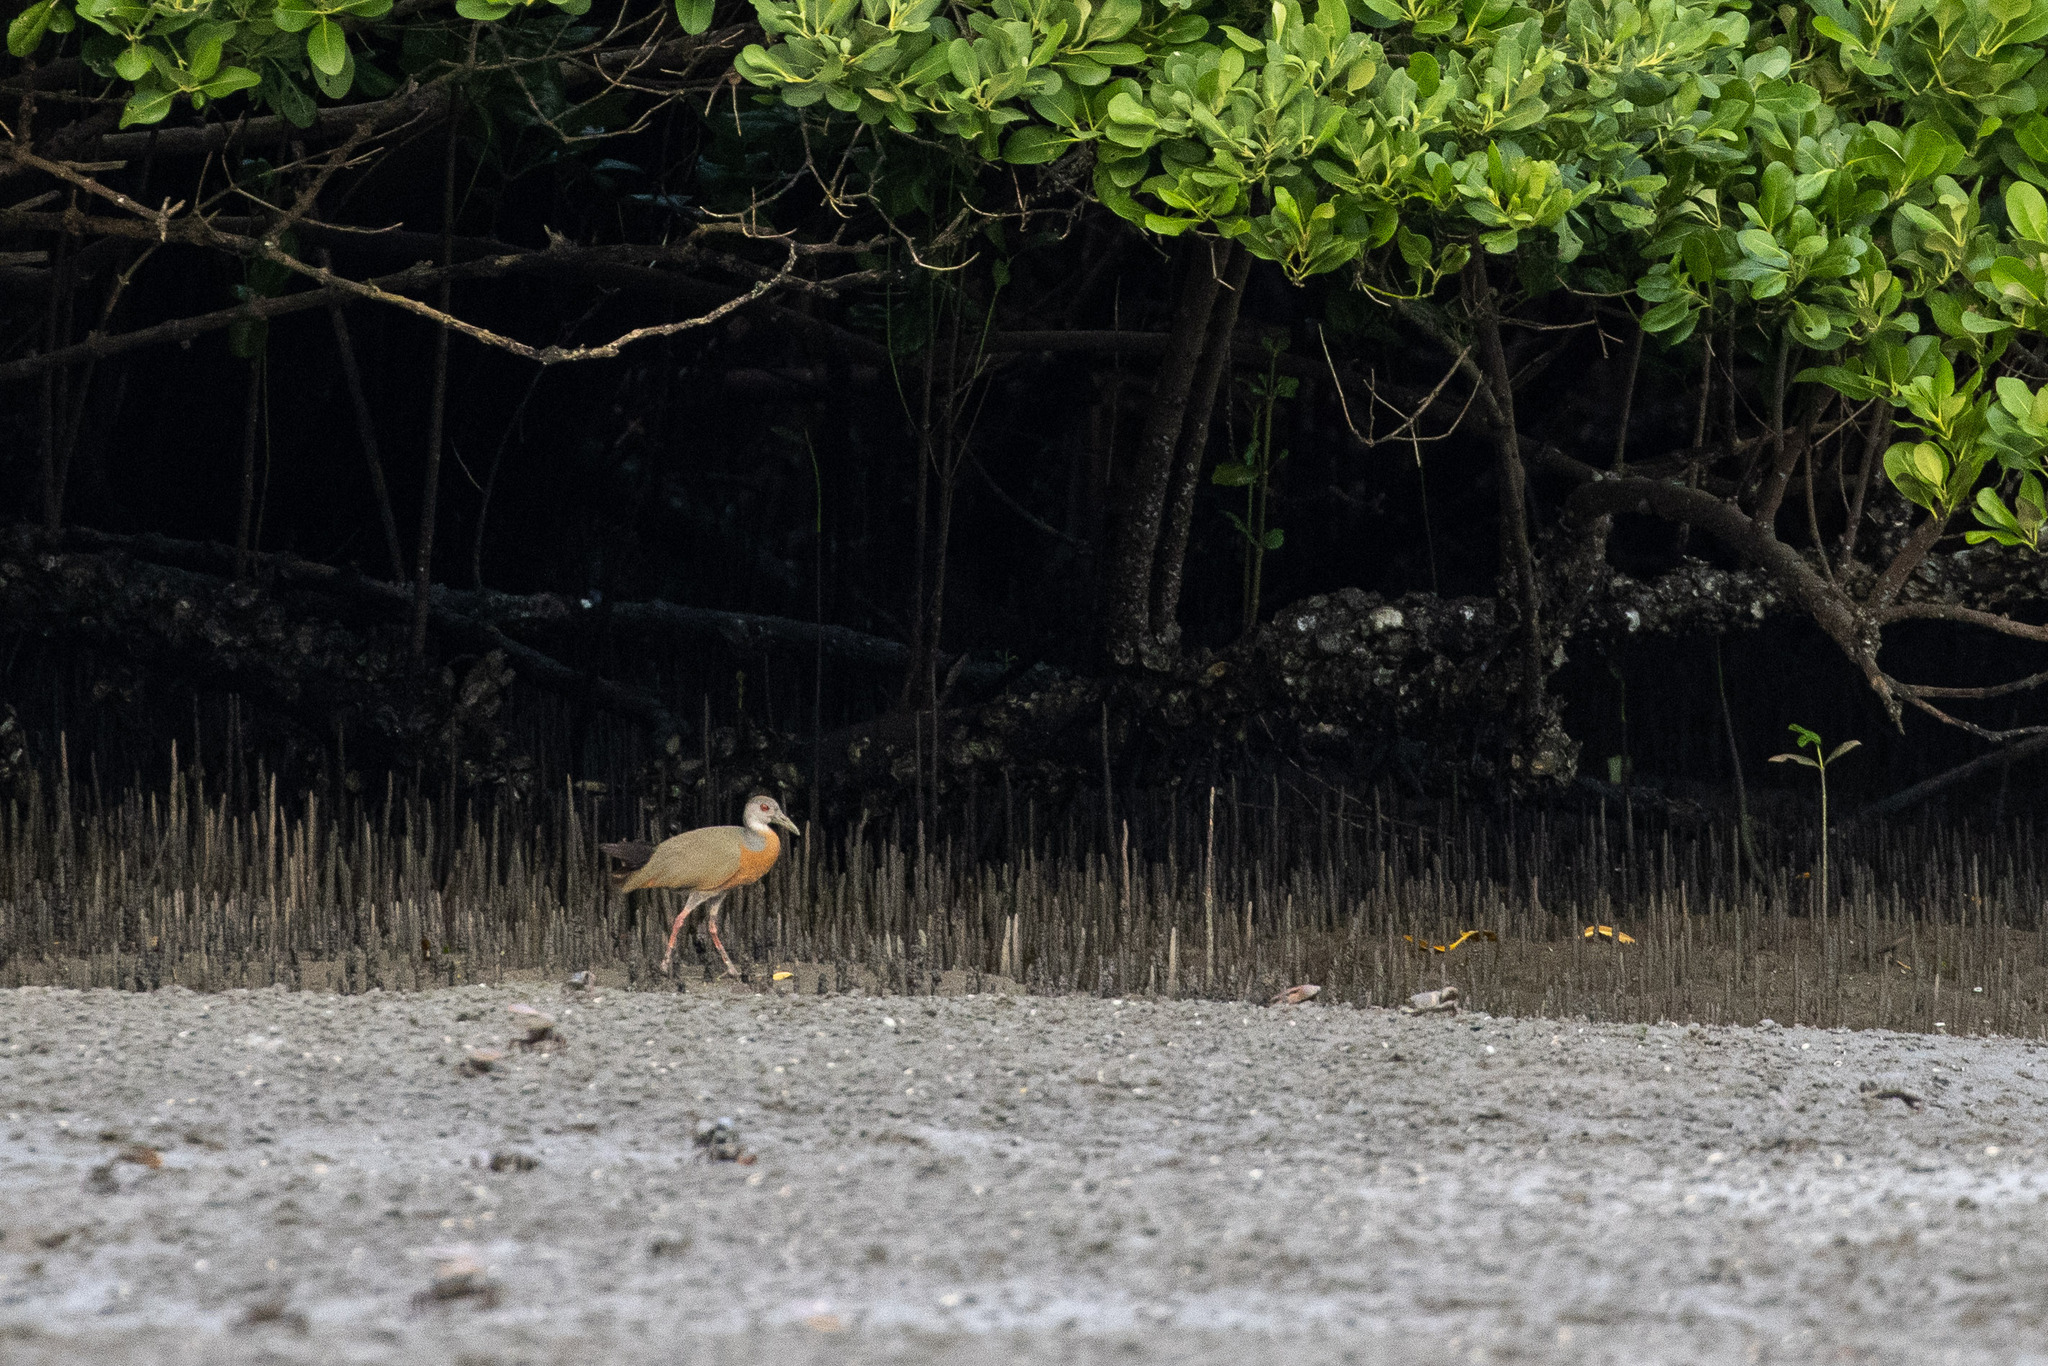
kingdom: Animalia
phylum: Chordata
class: Aves
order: Gruiformes
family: Rallidae
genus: Aramides
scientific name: Aramides mangle
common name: Little wood rail
